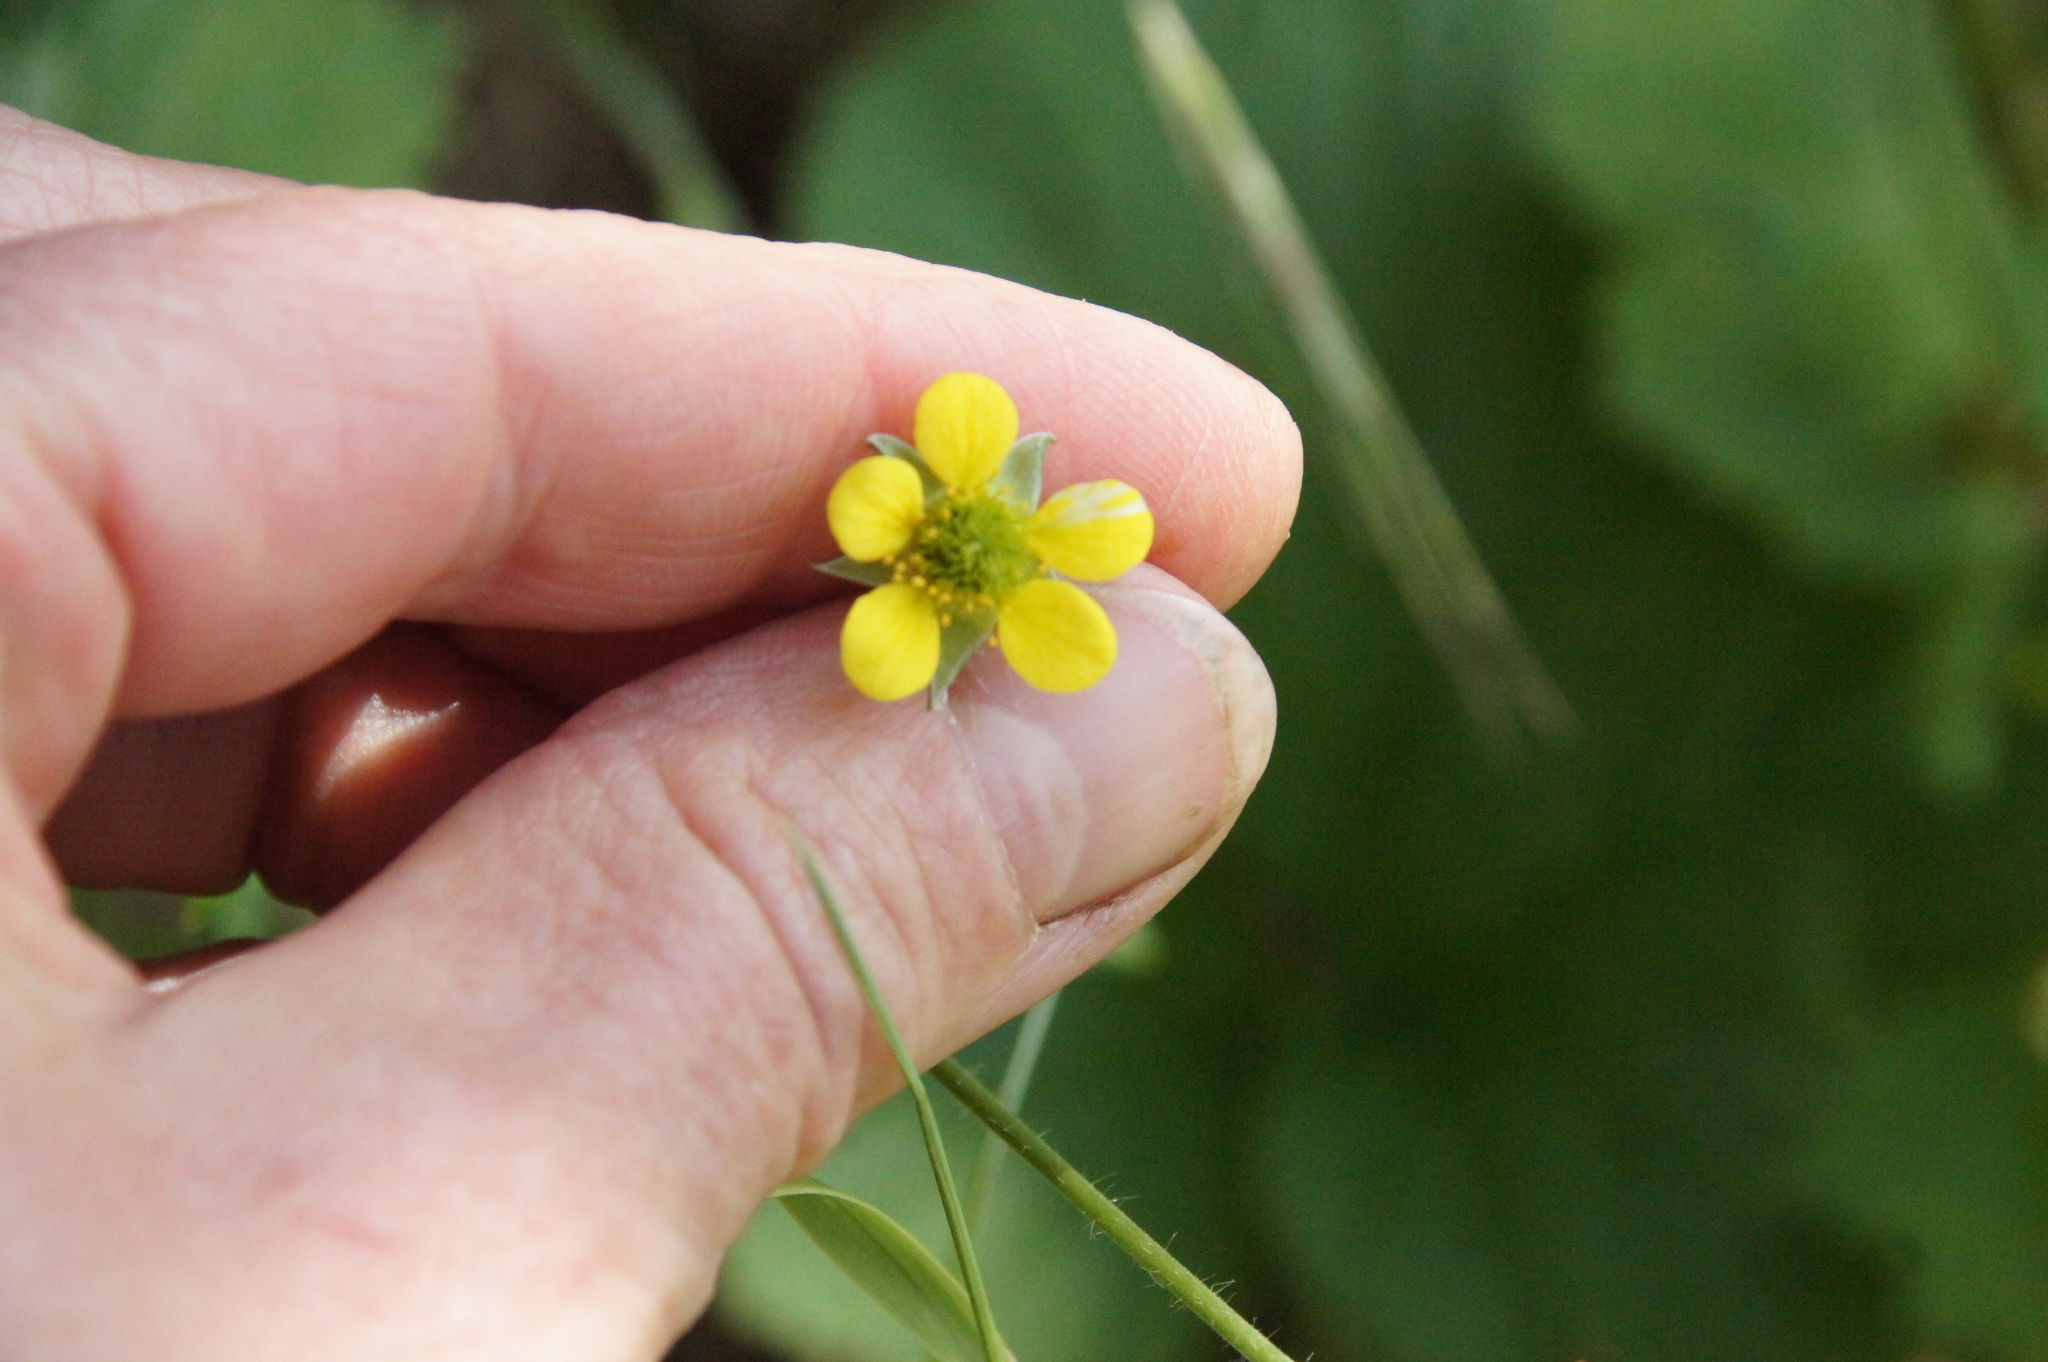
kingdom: Plantae
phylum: Tracheophyta
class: Magnoliopsida
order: Rosales
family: Rosaceae
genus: Geum
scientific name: Geum urbanum
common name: Wood avens
